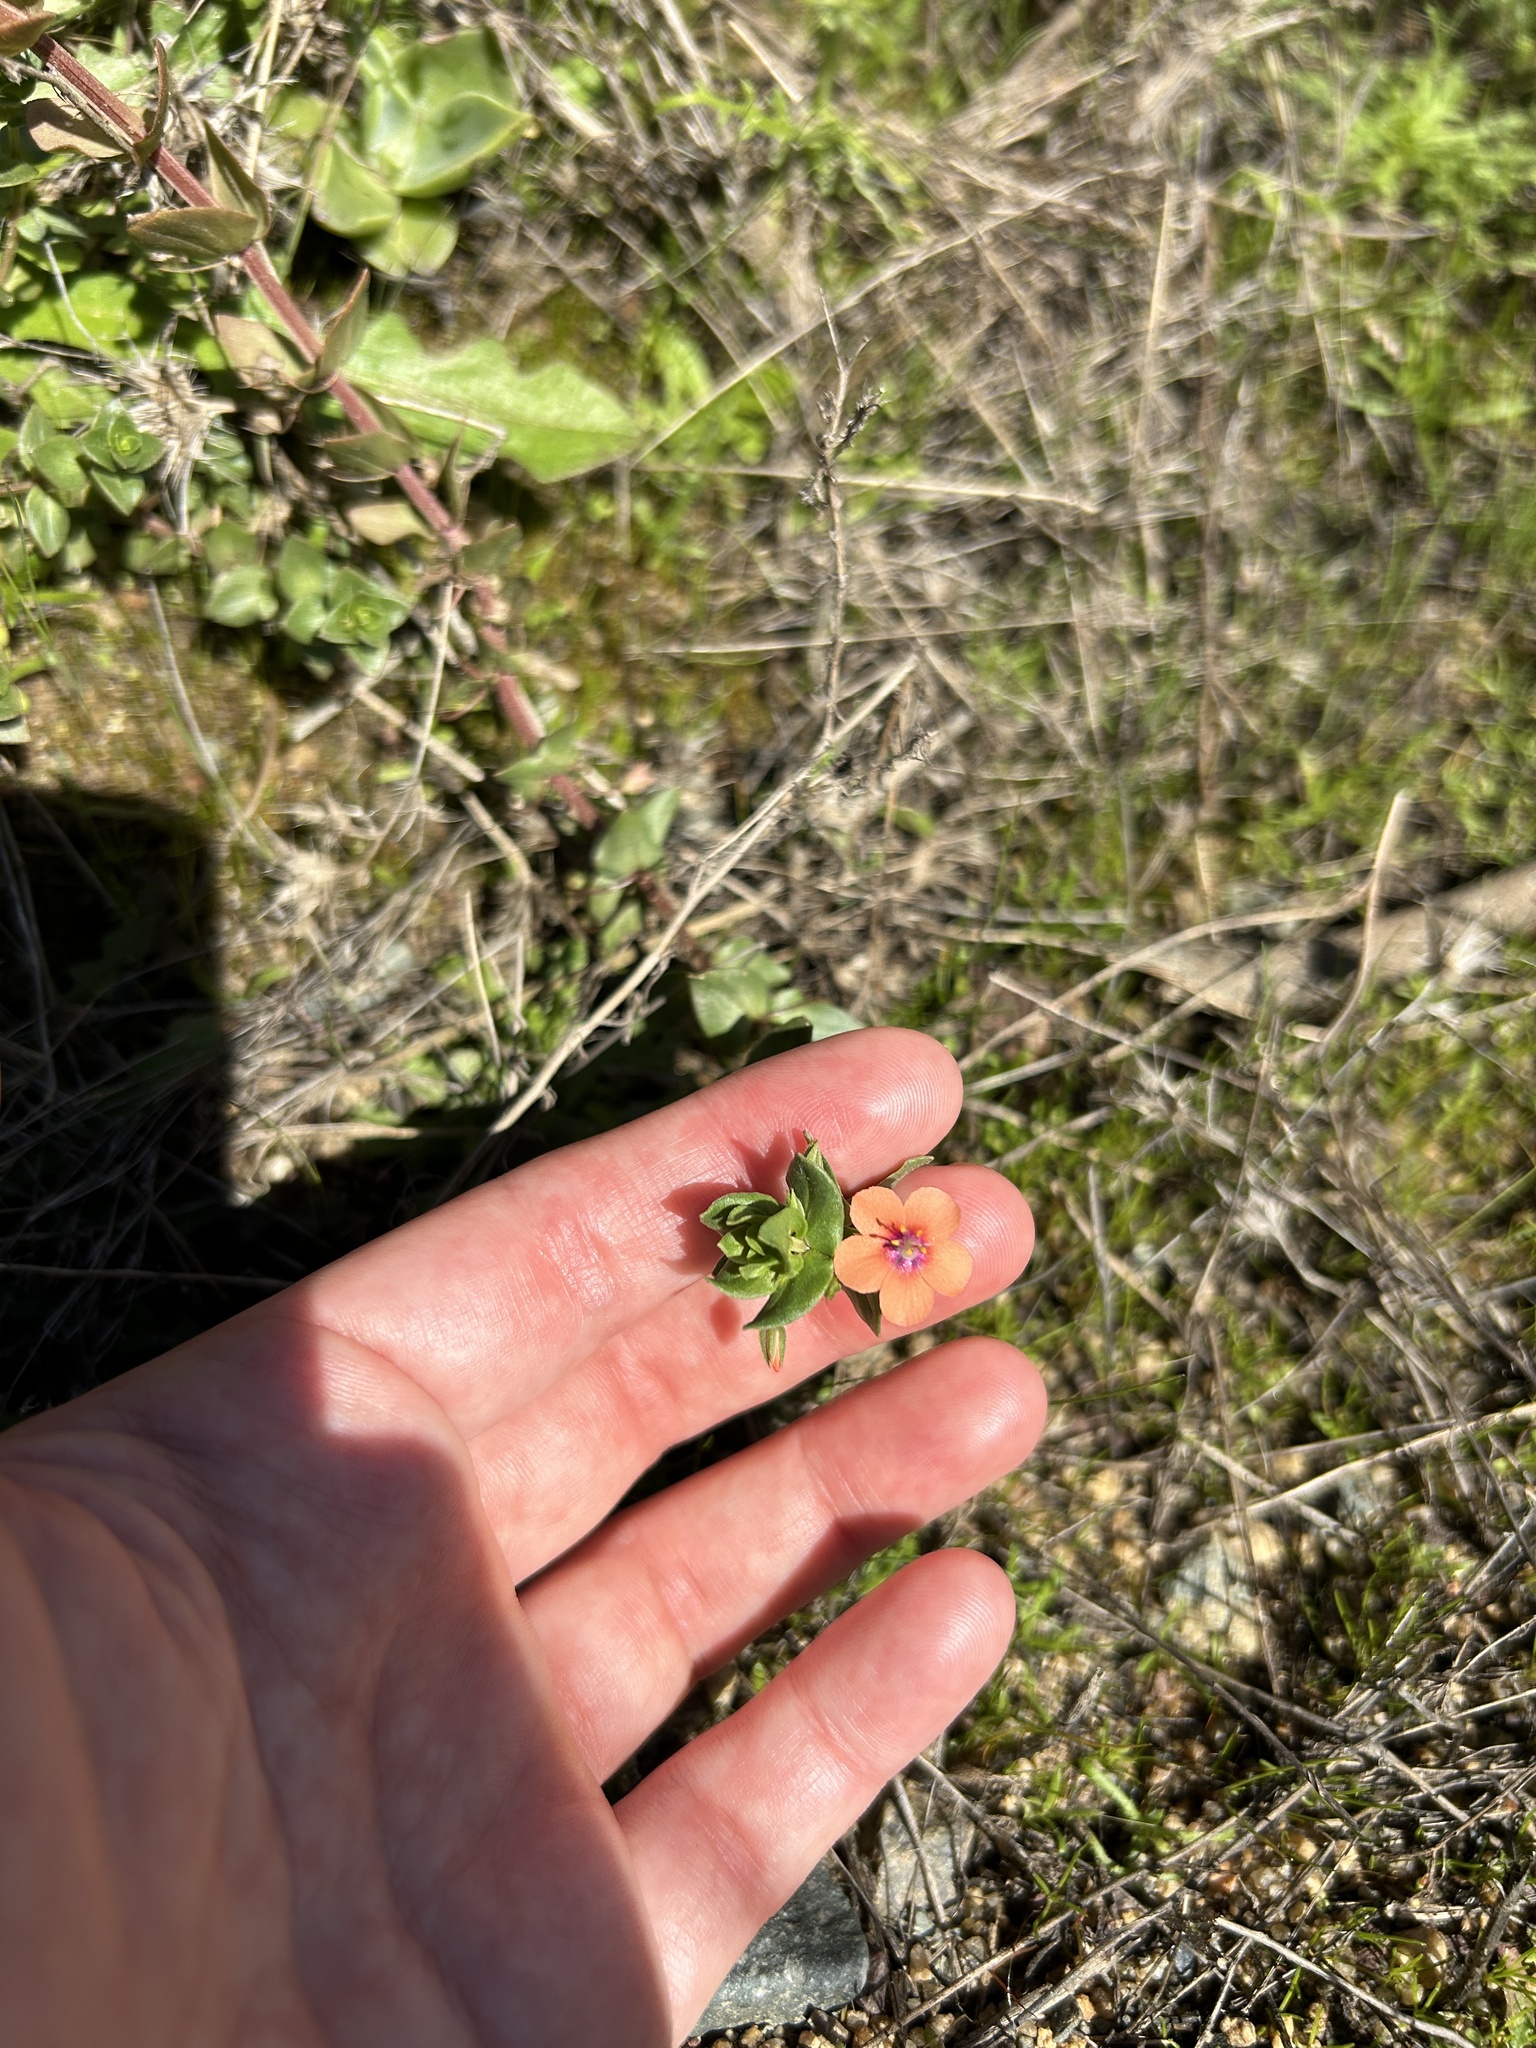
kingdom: Plantae
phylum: Tracheophyta
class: Magnoliopsida
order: Ericales
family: Primulaceae
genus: Lysimachia
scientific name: Lysimachia arvensis
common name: Scarlet pimpernel
